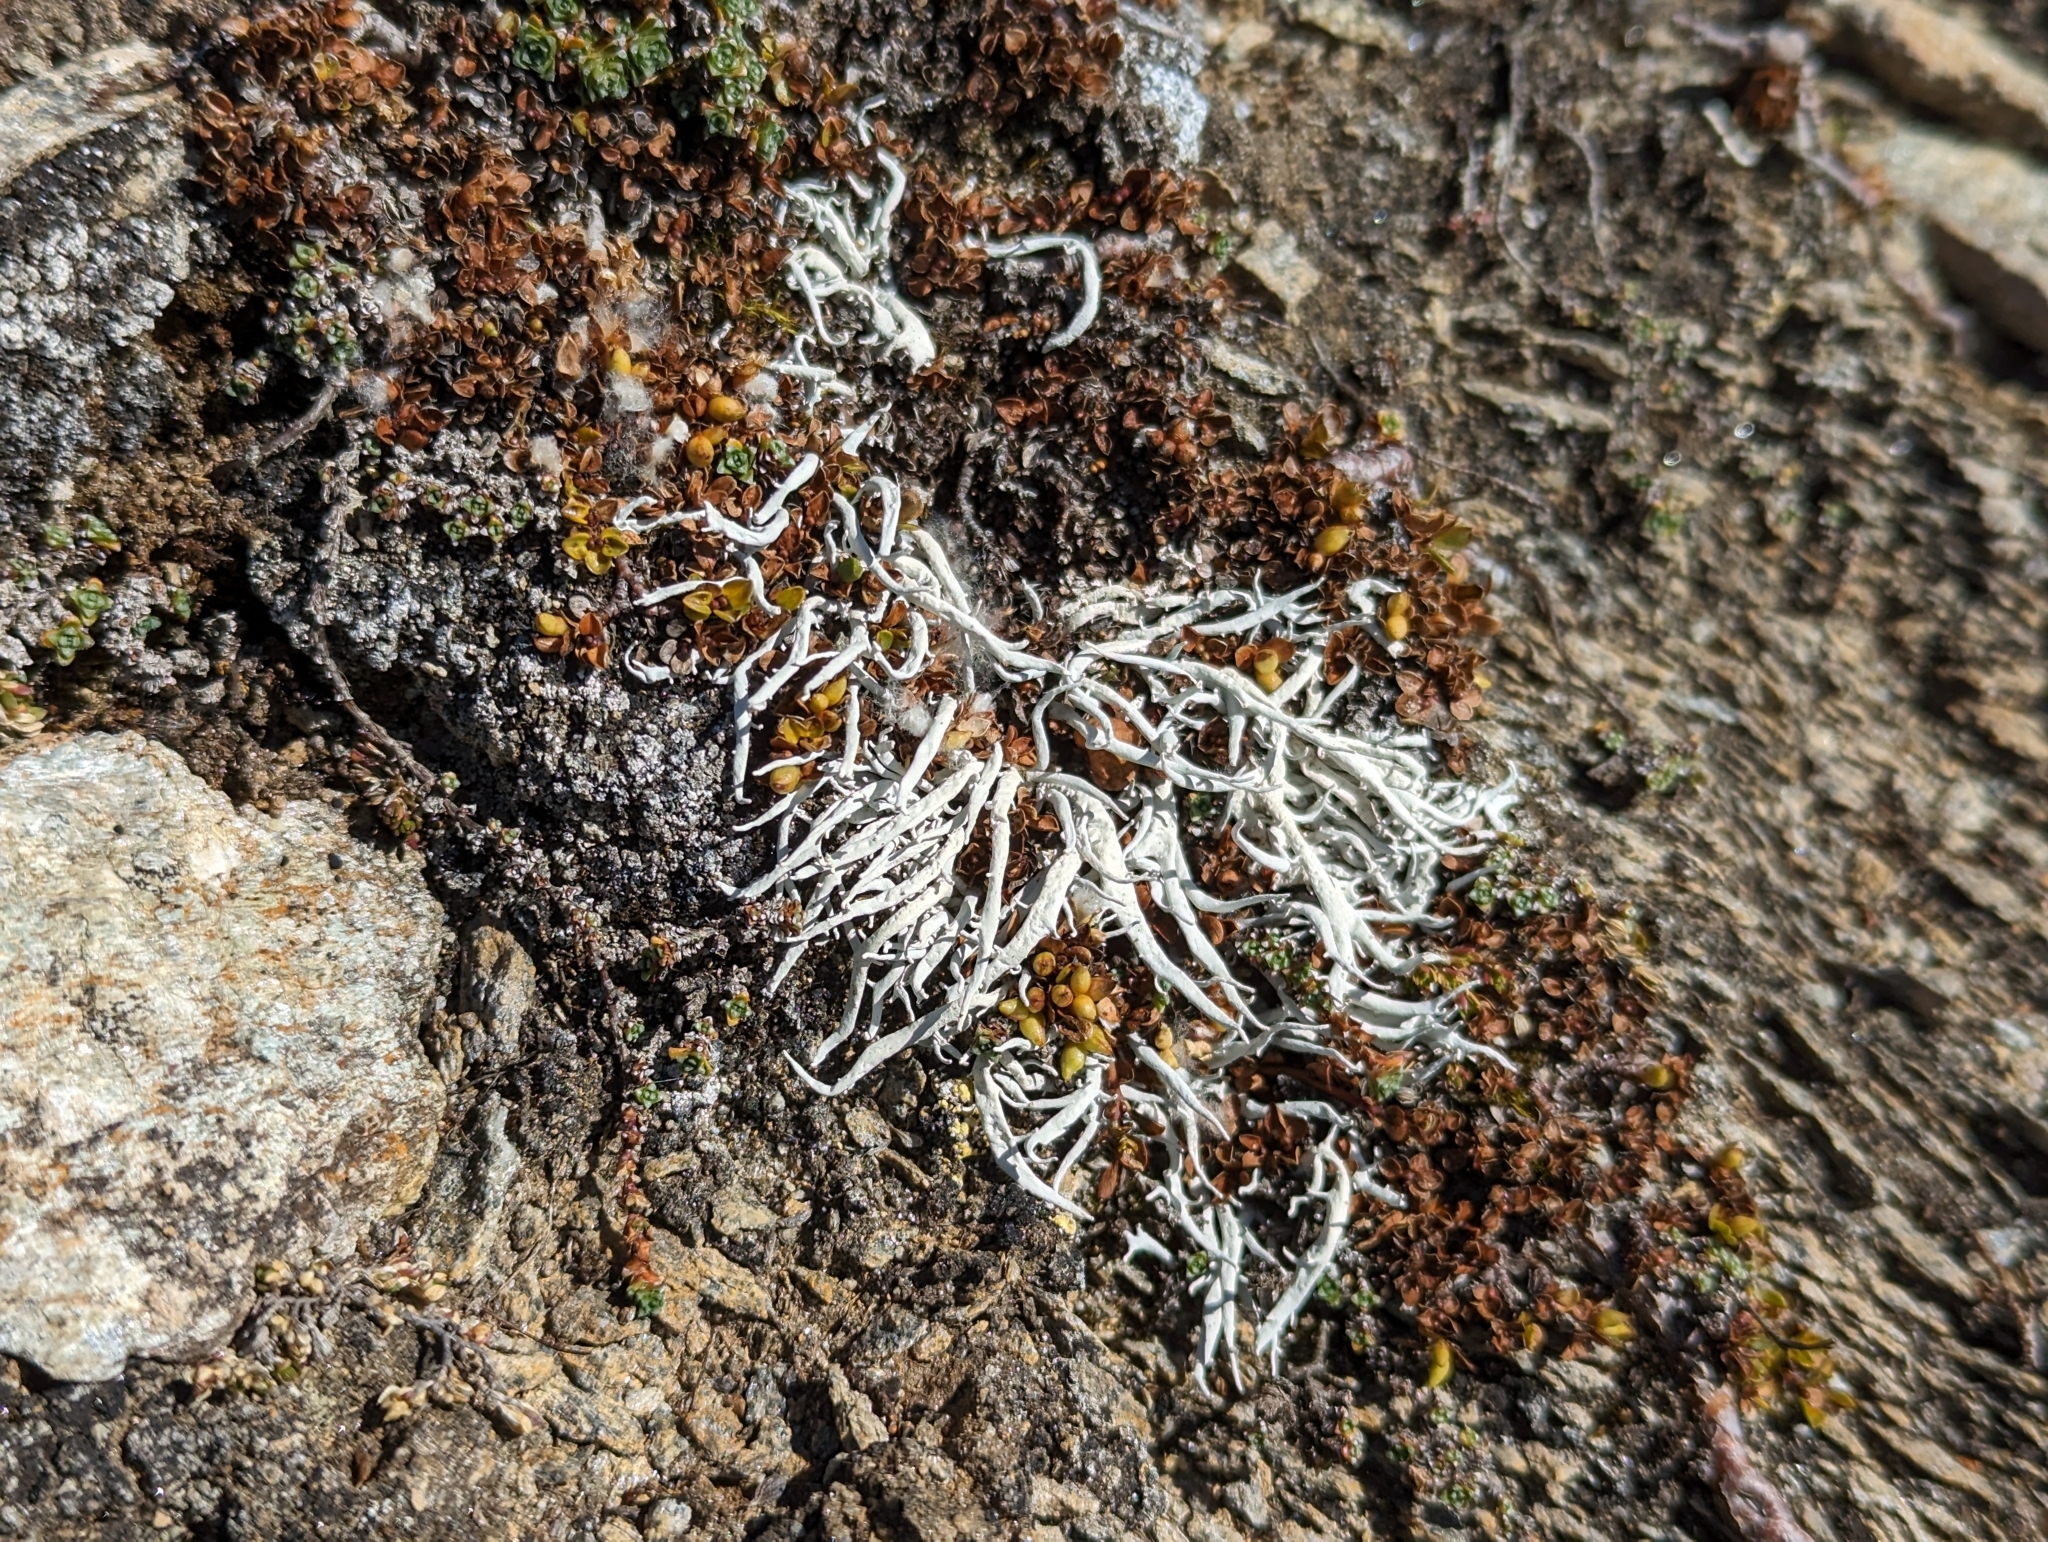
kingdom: Fungi
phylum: Ascomycota
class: Lecanoromycetes
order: Pertusariales
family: Icmadophilaceae
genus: Thamnolia
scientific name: Thamnolia vermicularis
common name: Whiteworm lichen
